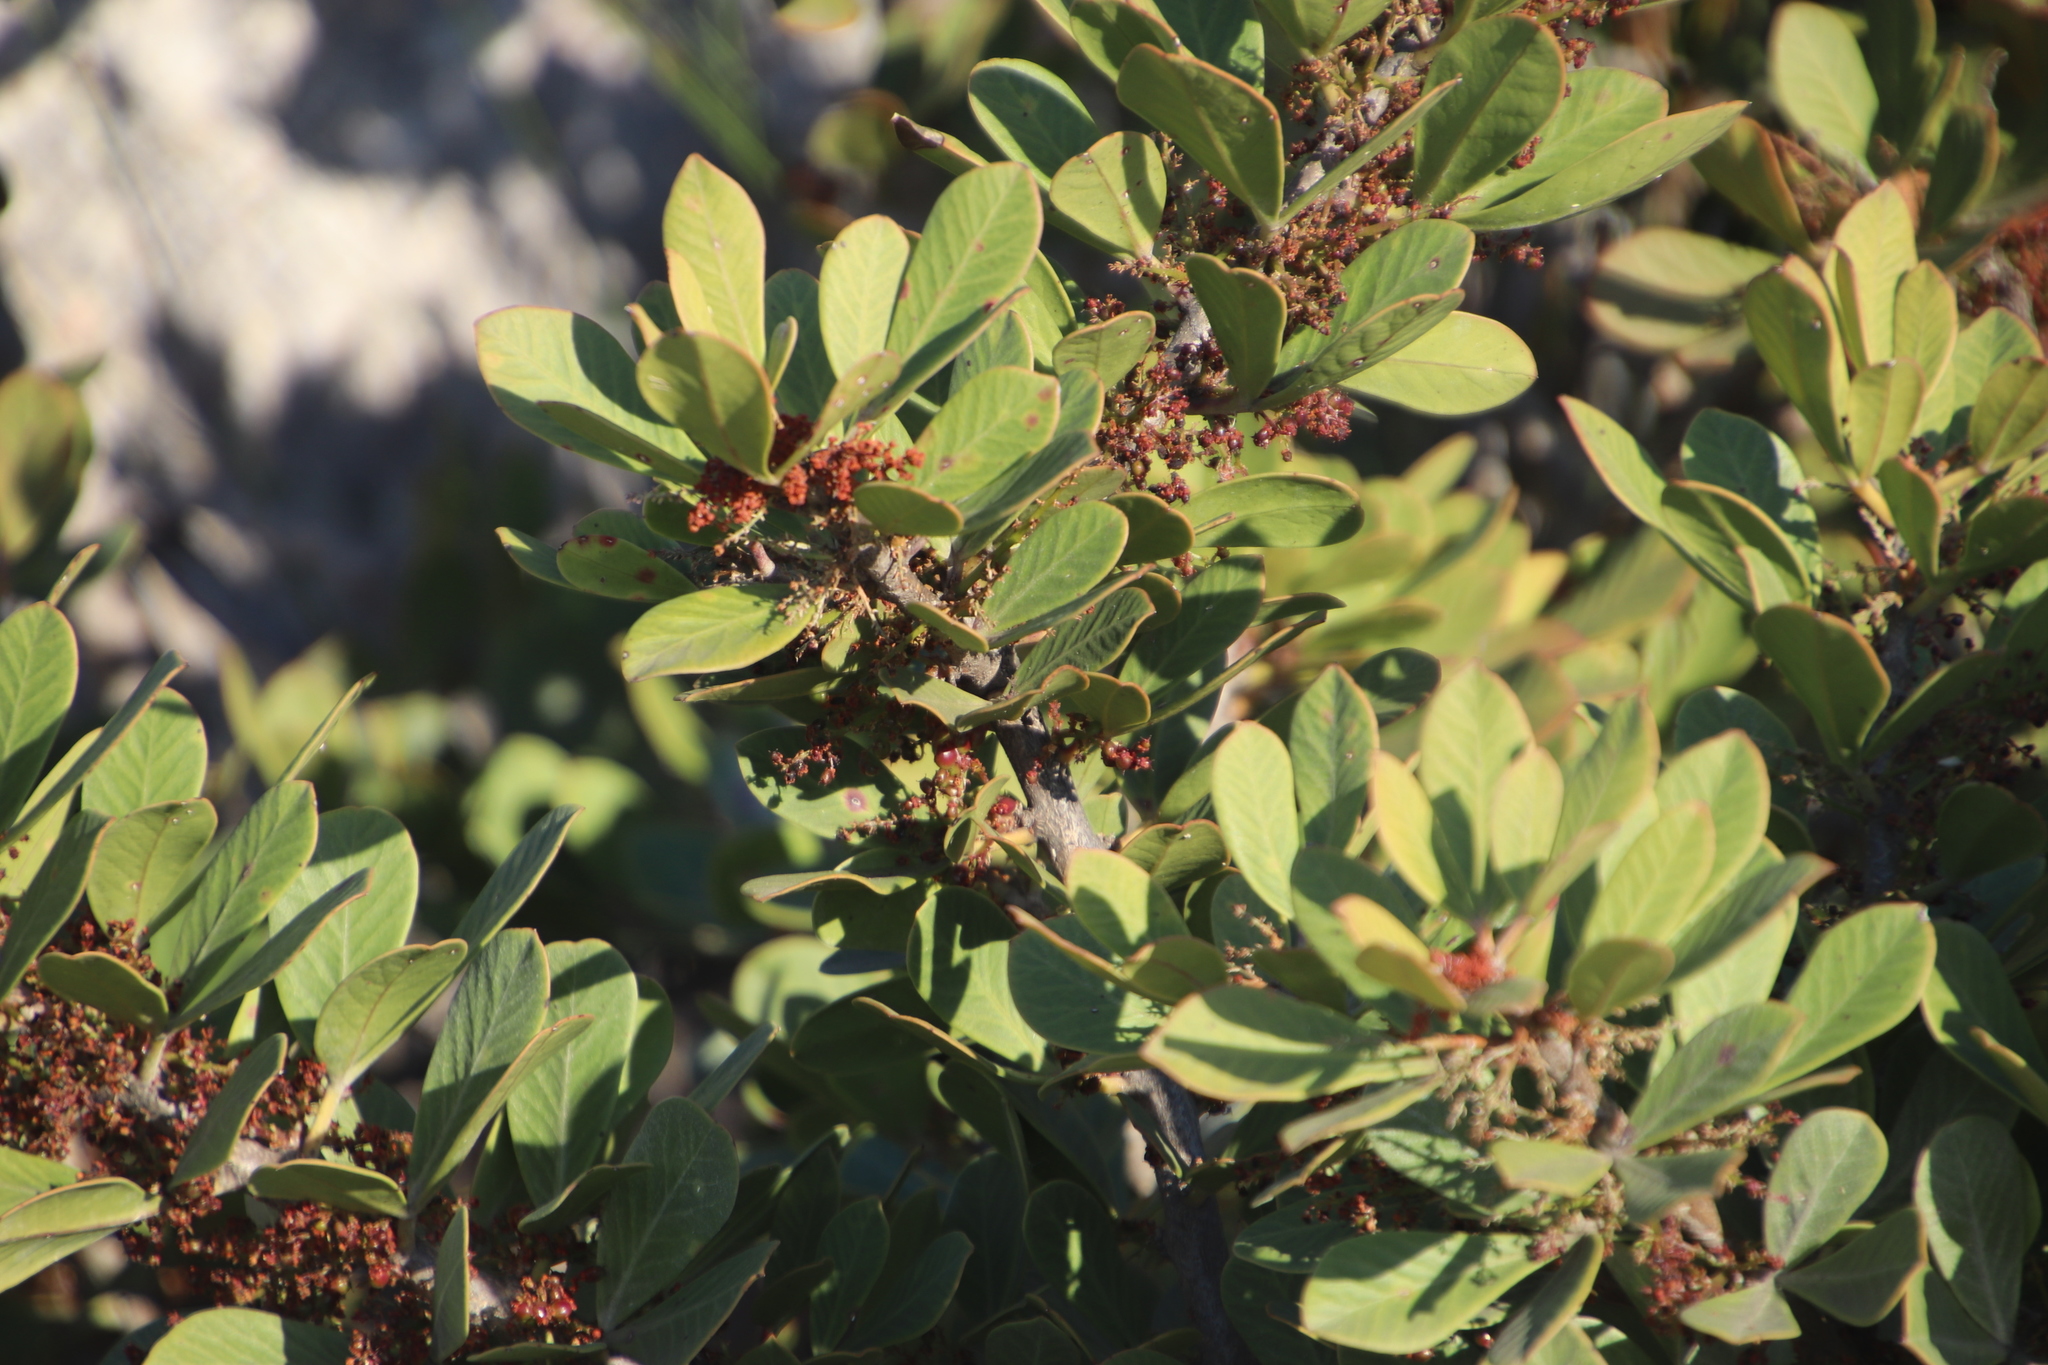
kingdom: Plantae
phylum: Tracheophyta
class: Magnoliopsida
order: Sapindales
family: Anacardiaceae
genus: Searsia
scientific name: Searsia scytophylla
